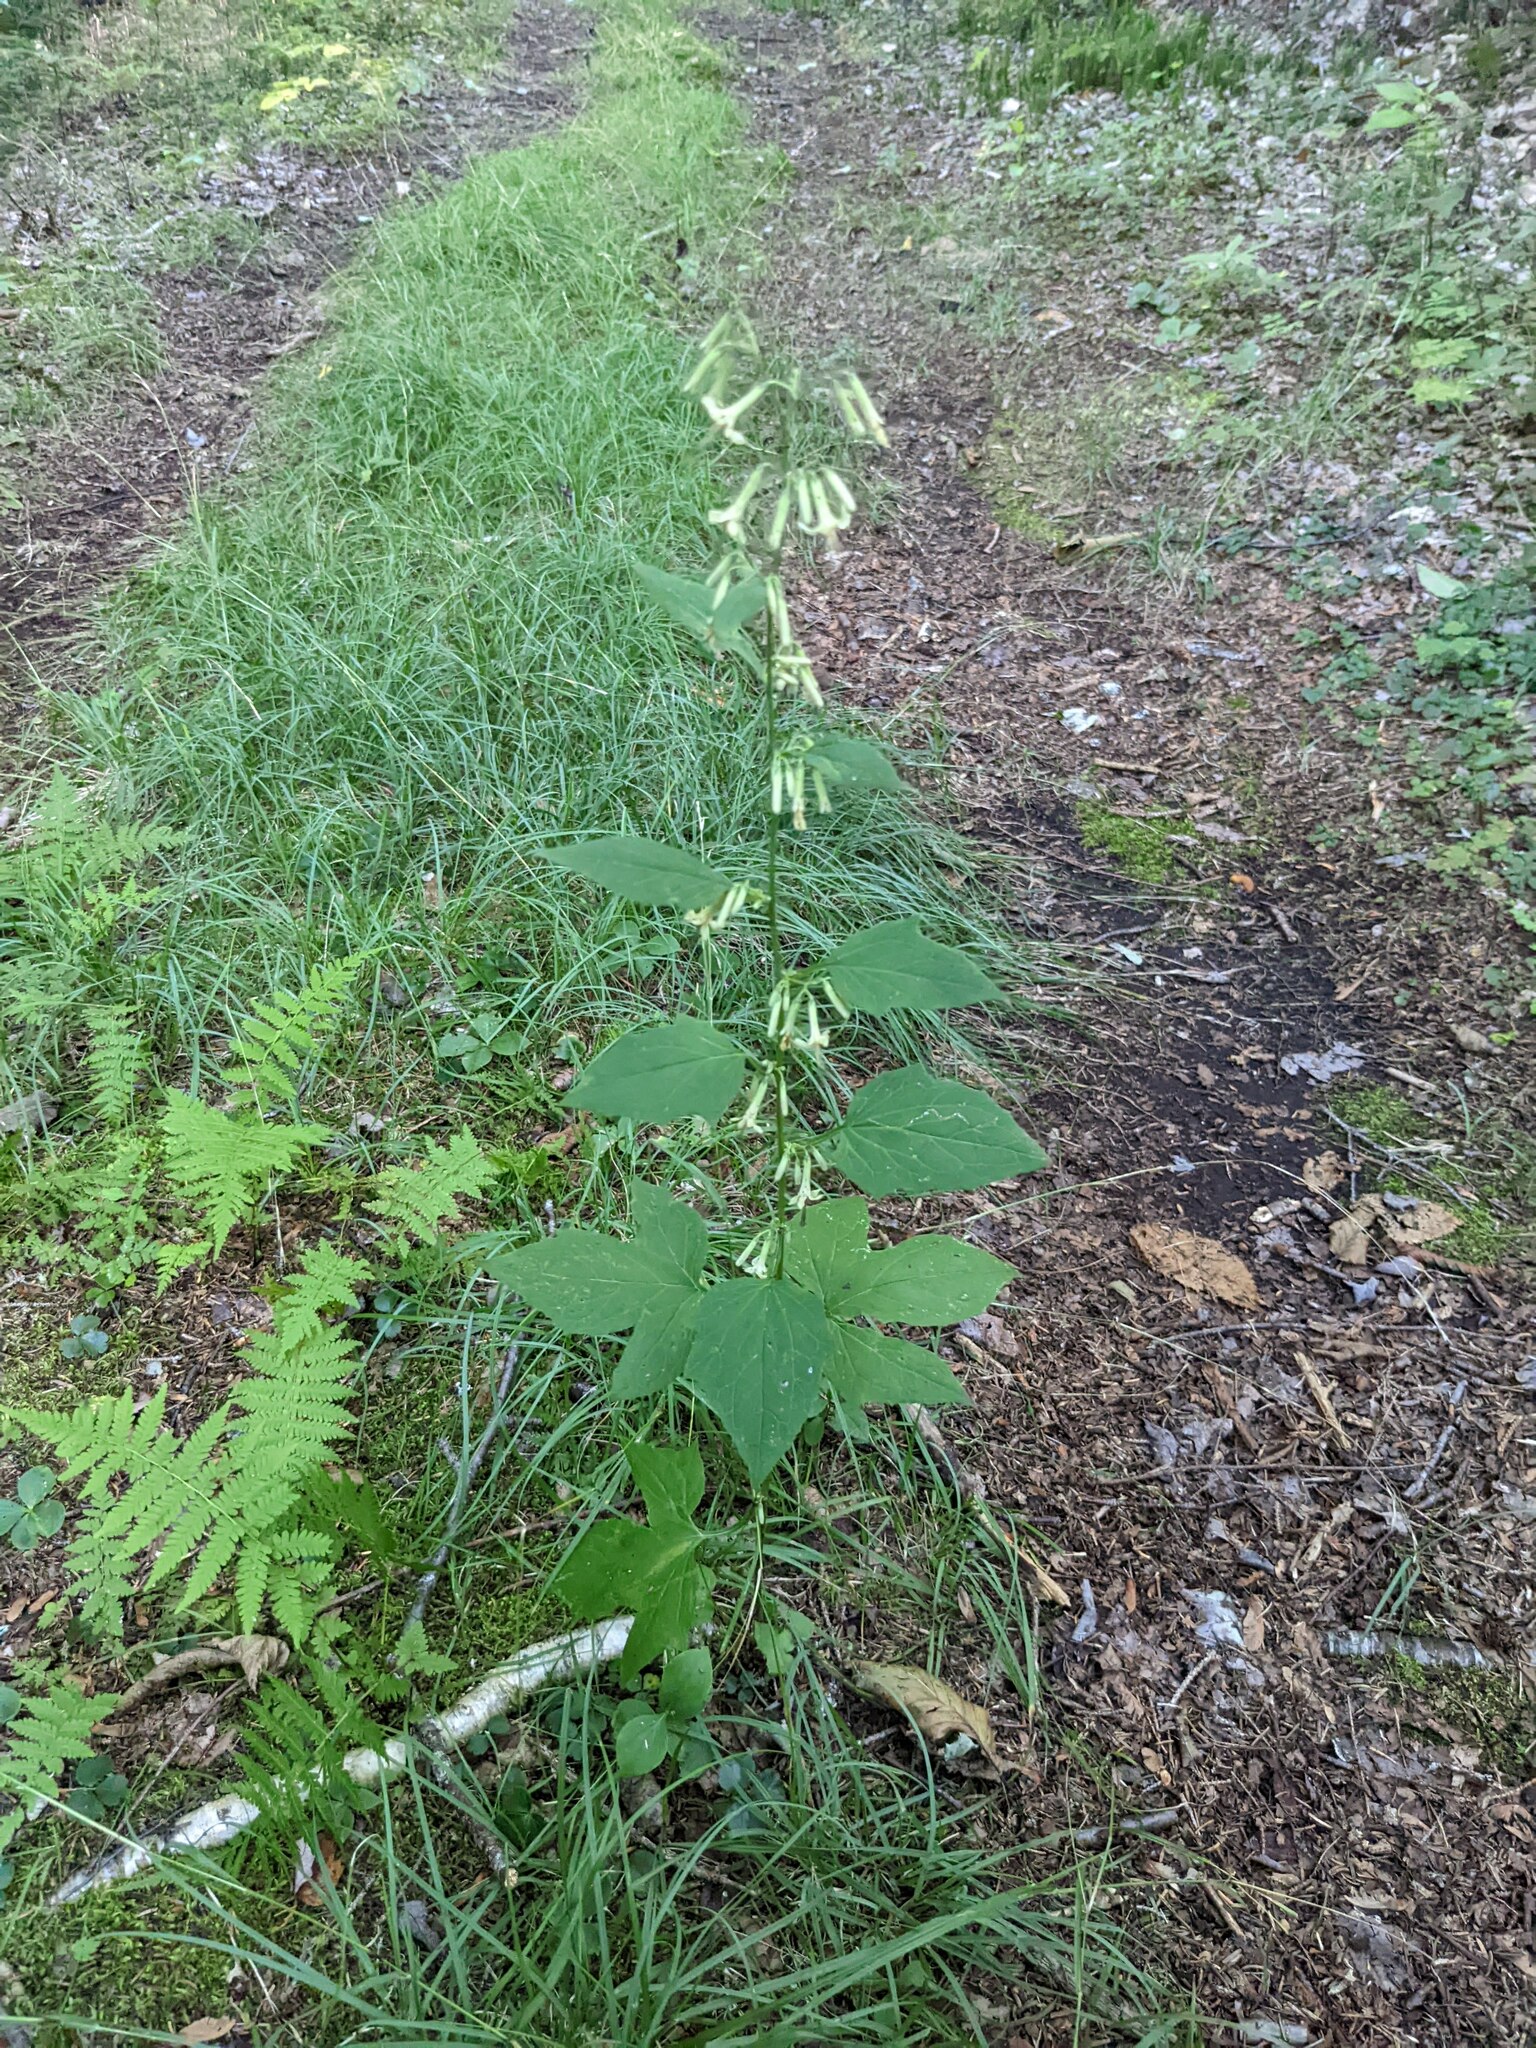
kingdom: Plantae
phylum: Tracheophyta
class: Magnoliopsida
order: Asterales
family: Asteraceae
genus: Nabalus
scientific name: Nabalus altissima
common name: Tall rattlesnakeroot
